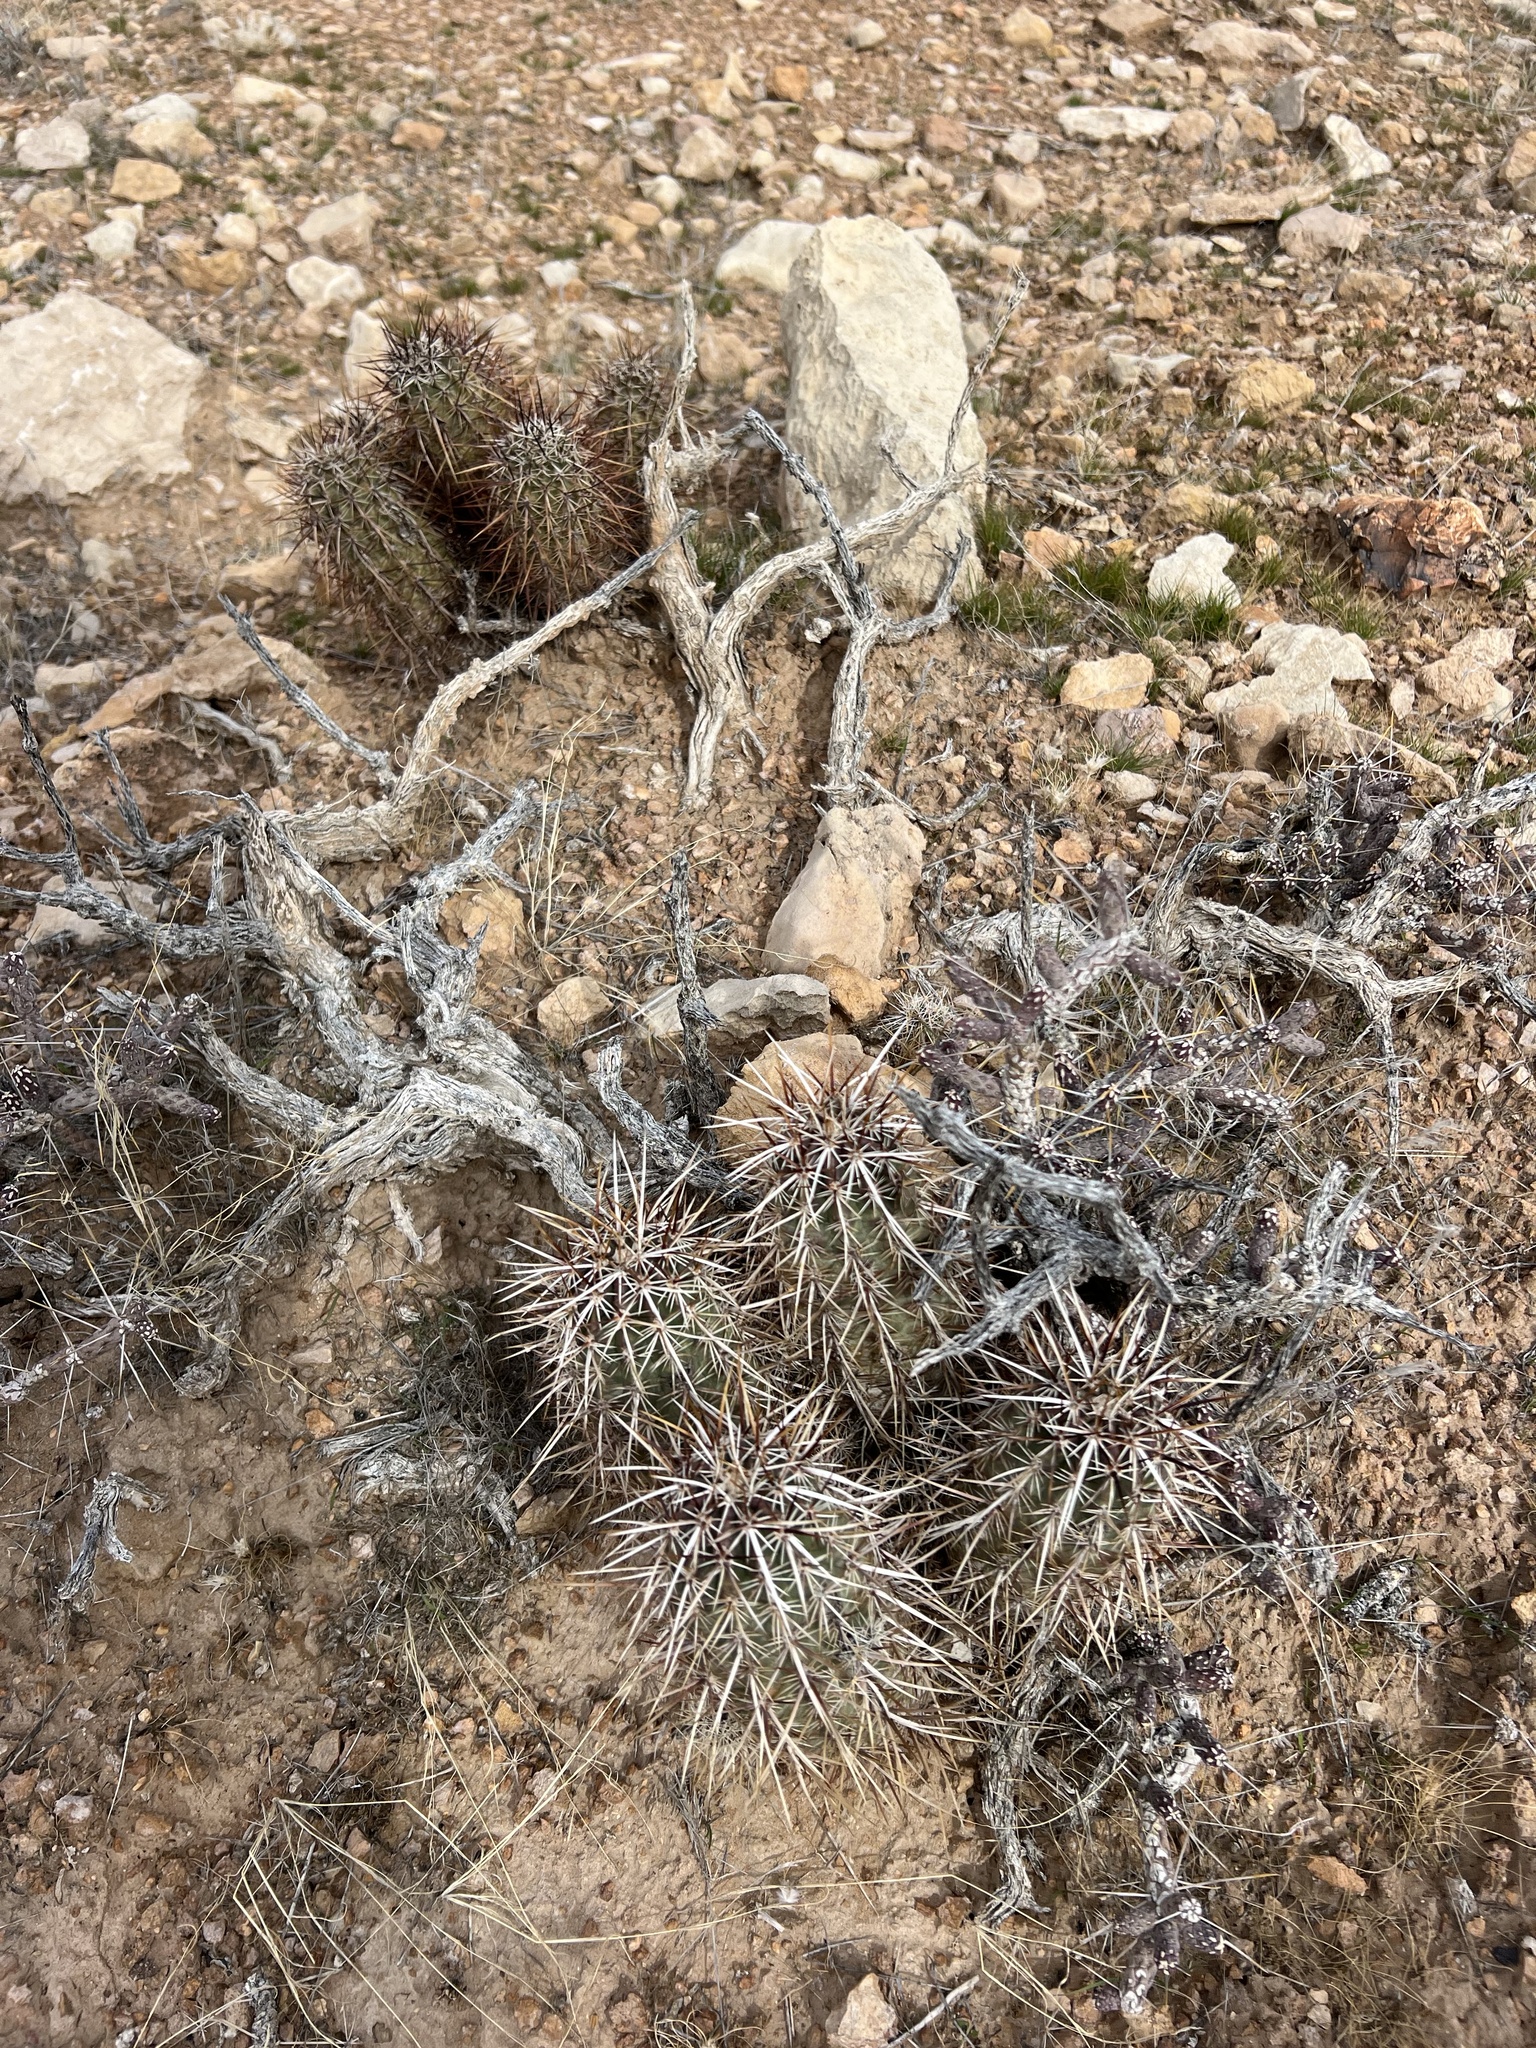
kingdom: Plantae
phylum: Tracheophyta
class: Magnoliopsida
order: Caryophyllales
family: Cactaceae
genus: Echinocereus
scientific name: Echinocereus engelmannii
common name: Engelmann's hedgehog cactus
